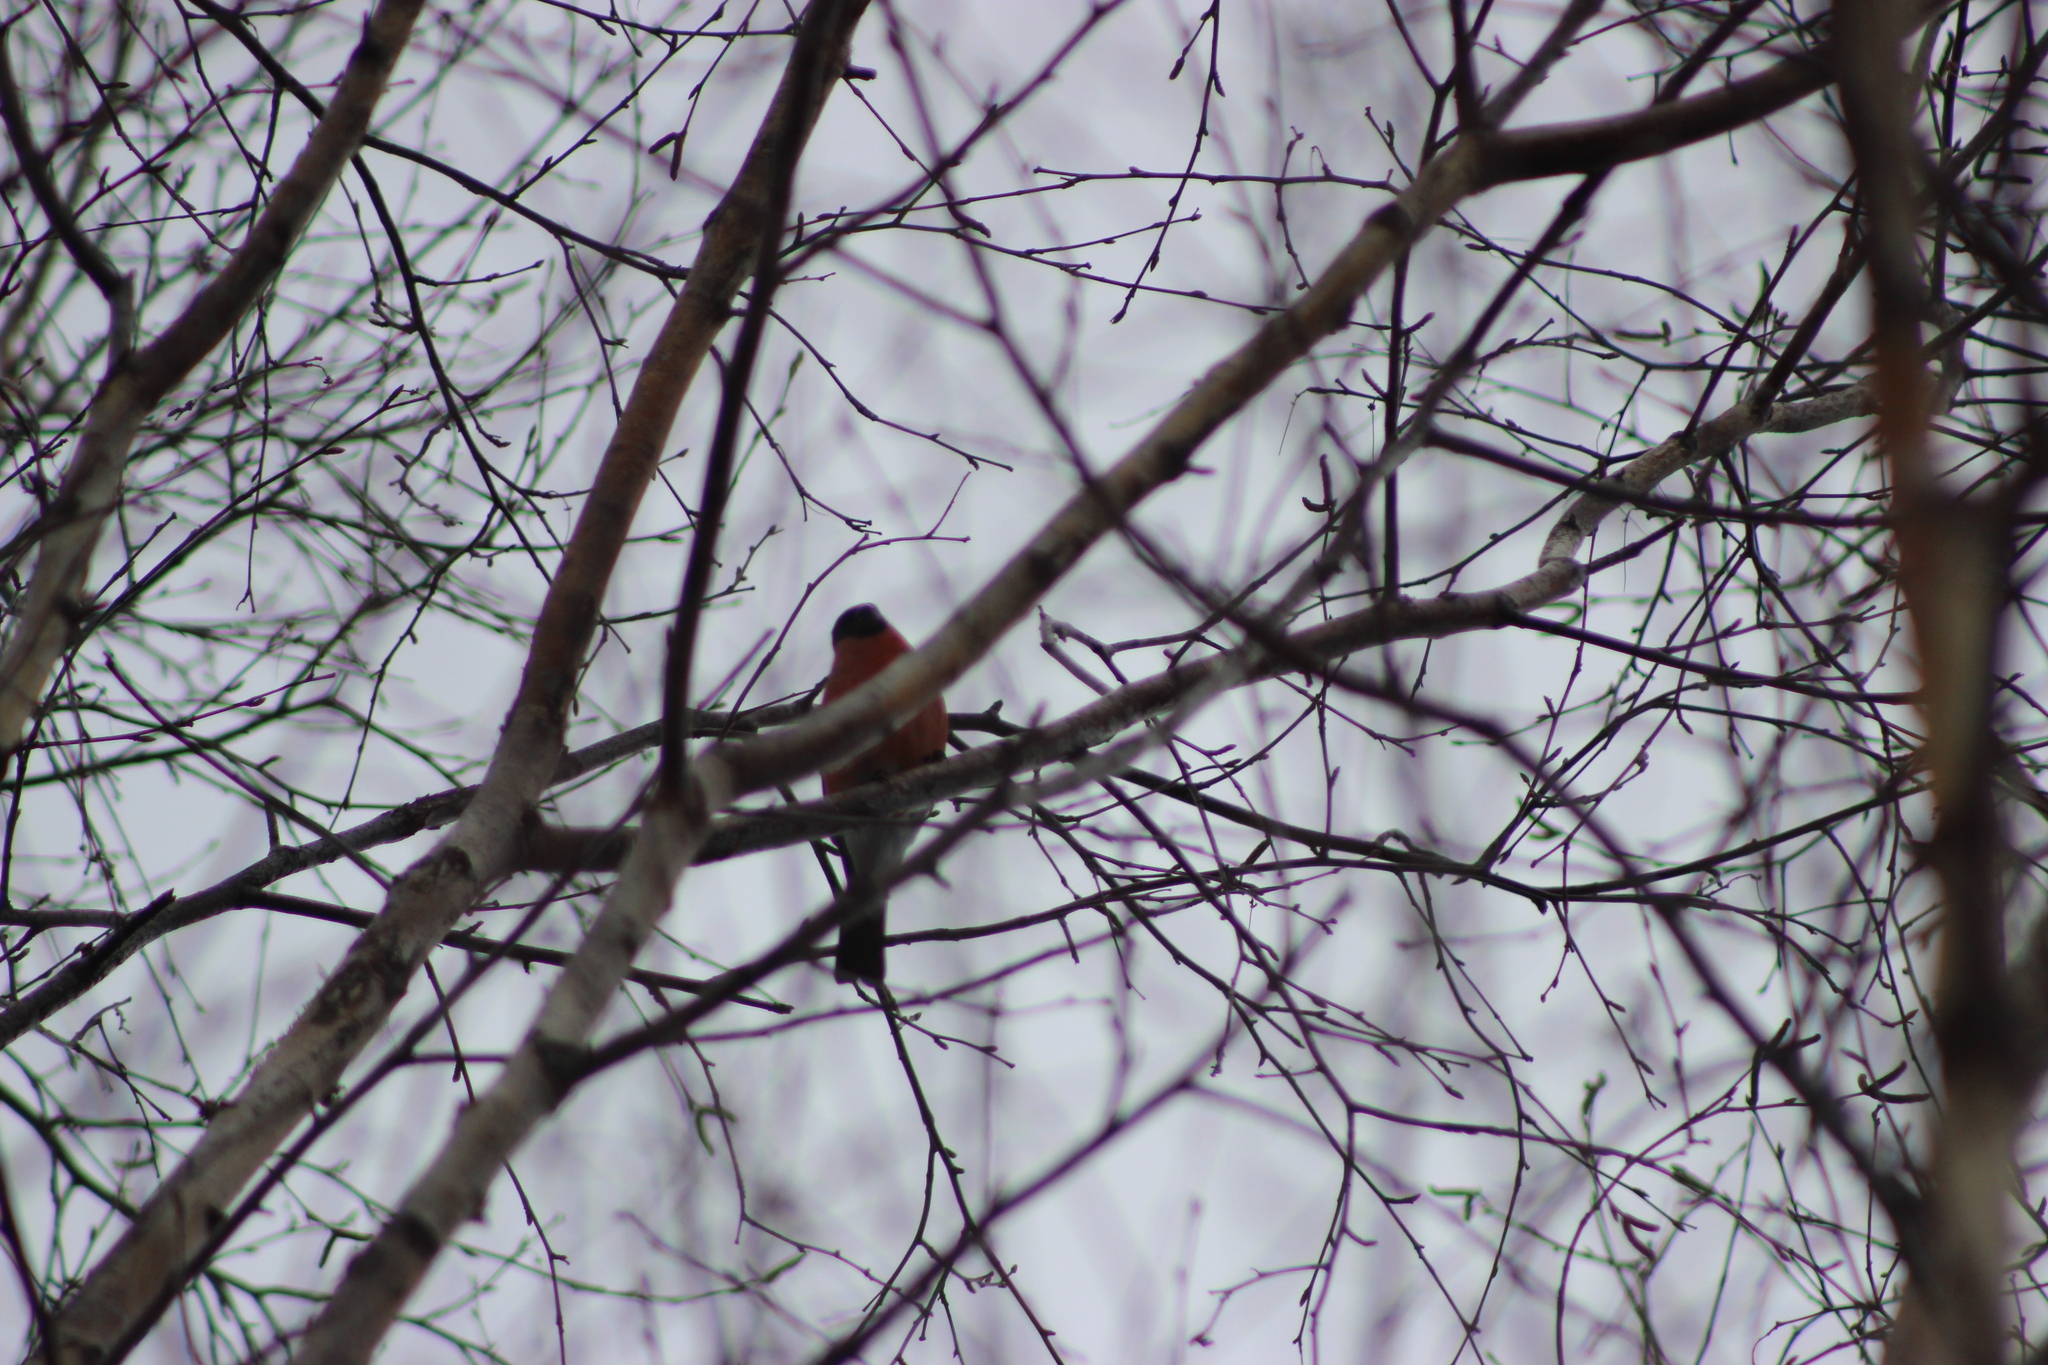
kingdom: Animalia
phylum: Chordata
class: Aves
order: Passeriformes
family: Fringillidae
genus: Pyrrhula
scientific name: Pyrrhula pyrrhula
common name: Eurasian bullfinch
